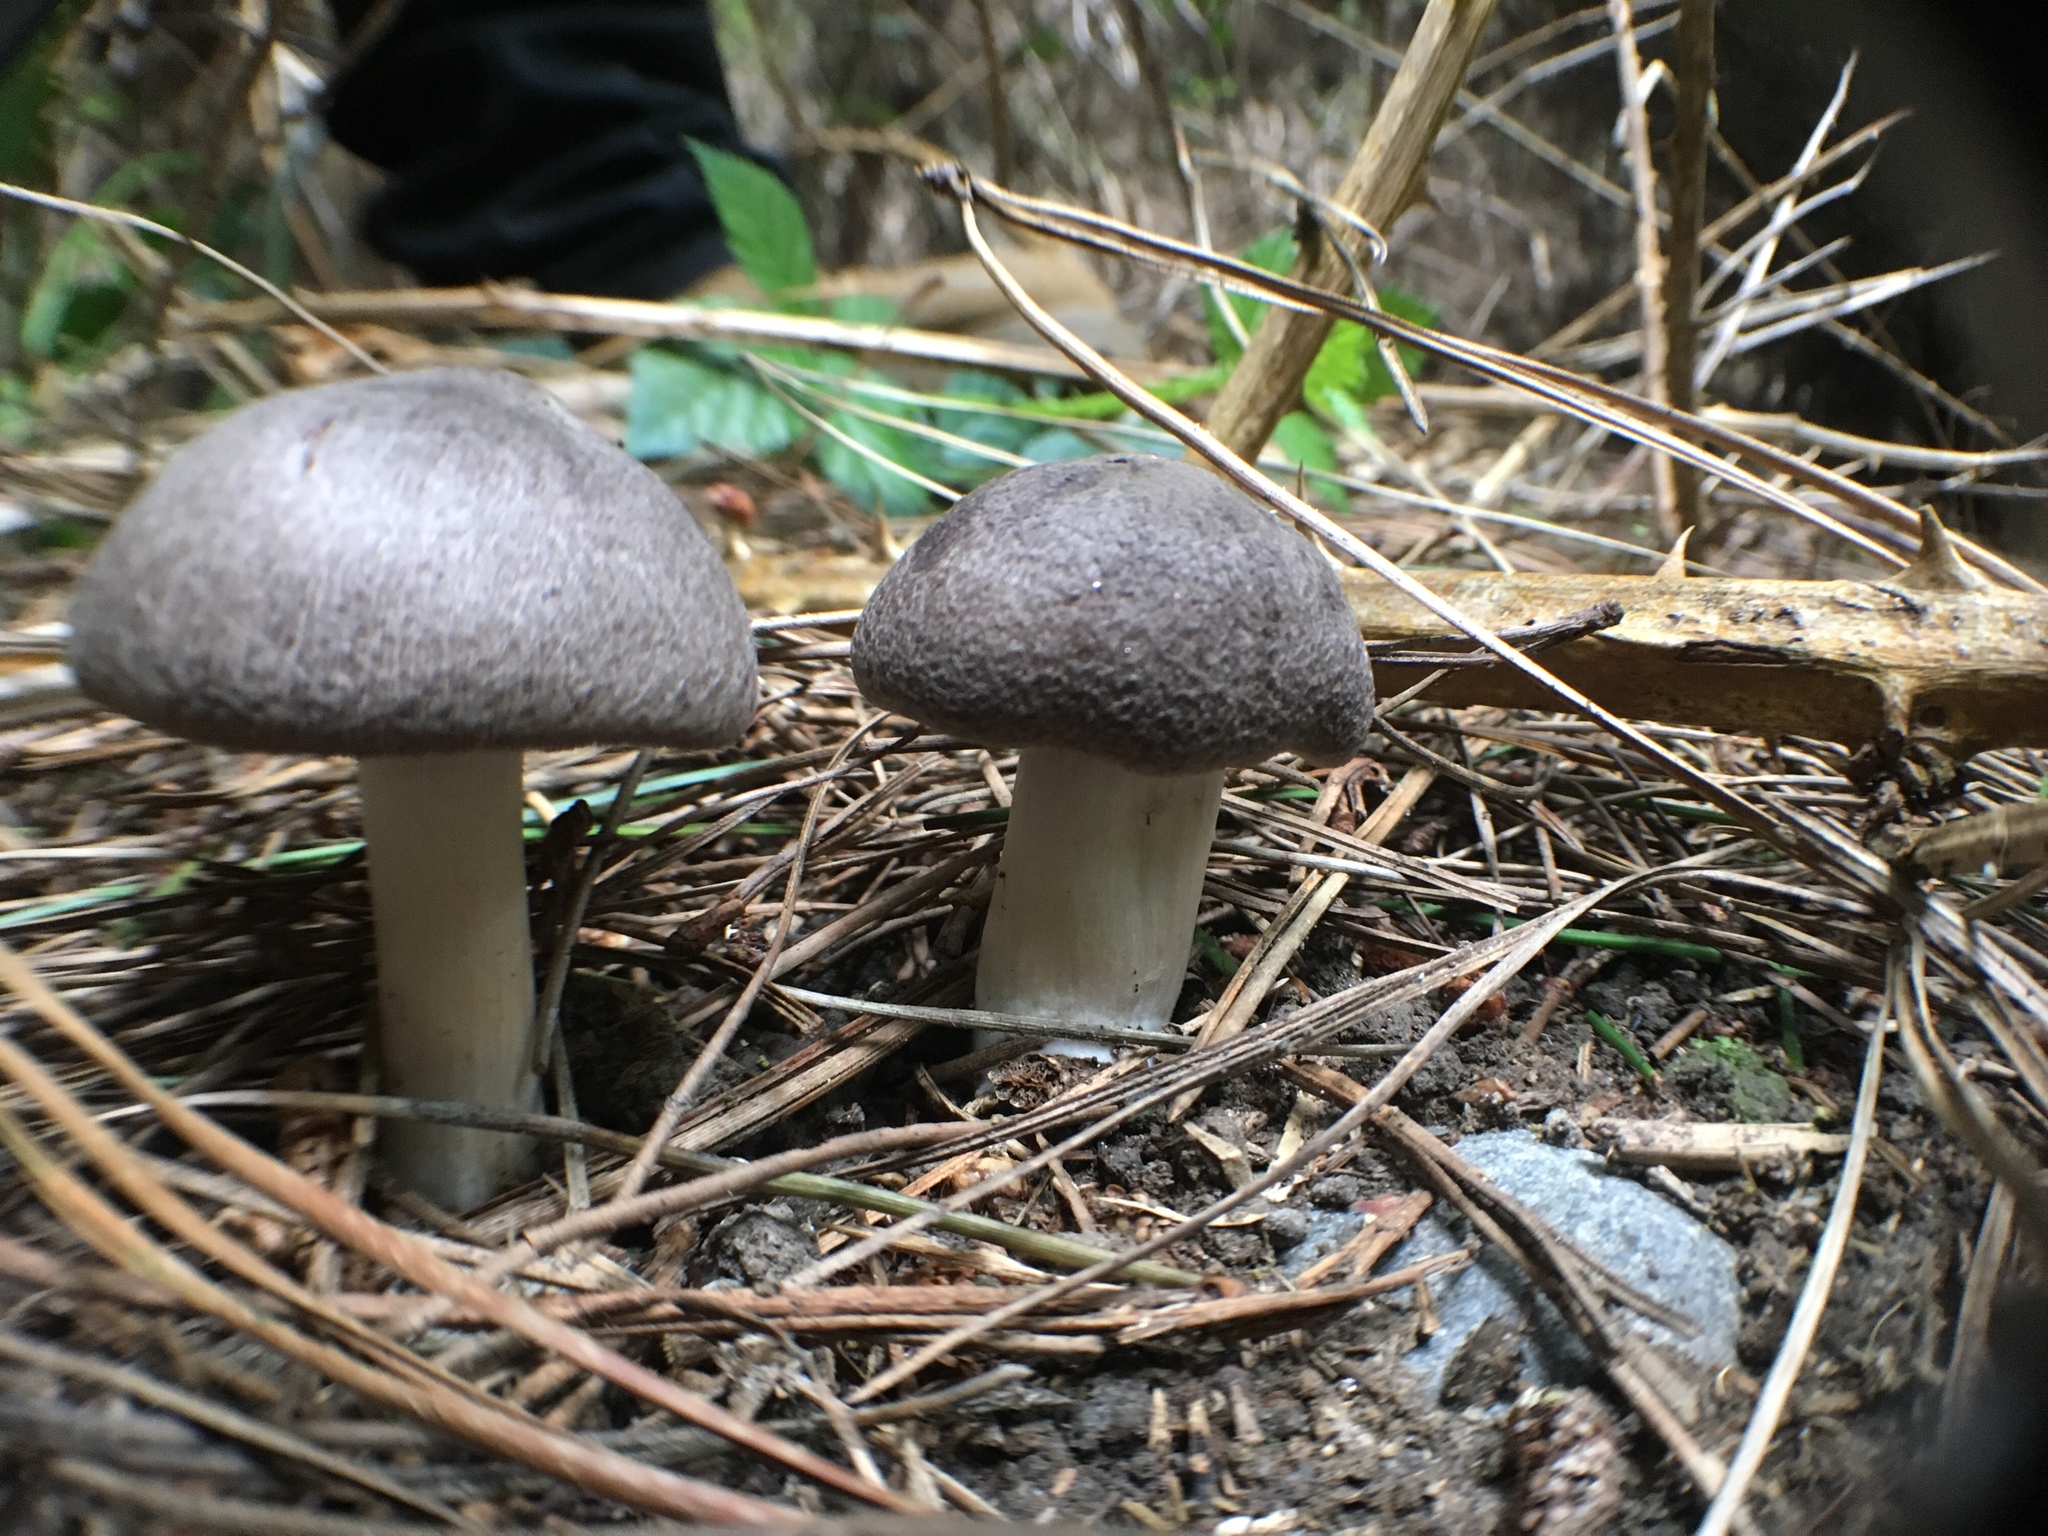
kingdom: Fungi
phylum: Basidiomycota
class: Agaricomycetes
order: Agaricales
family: Tricholomataceae
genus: Tricholoma
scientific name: Tricholoma terreum
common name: Grey knight
